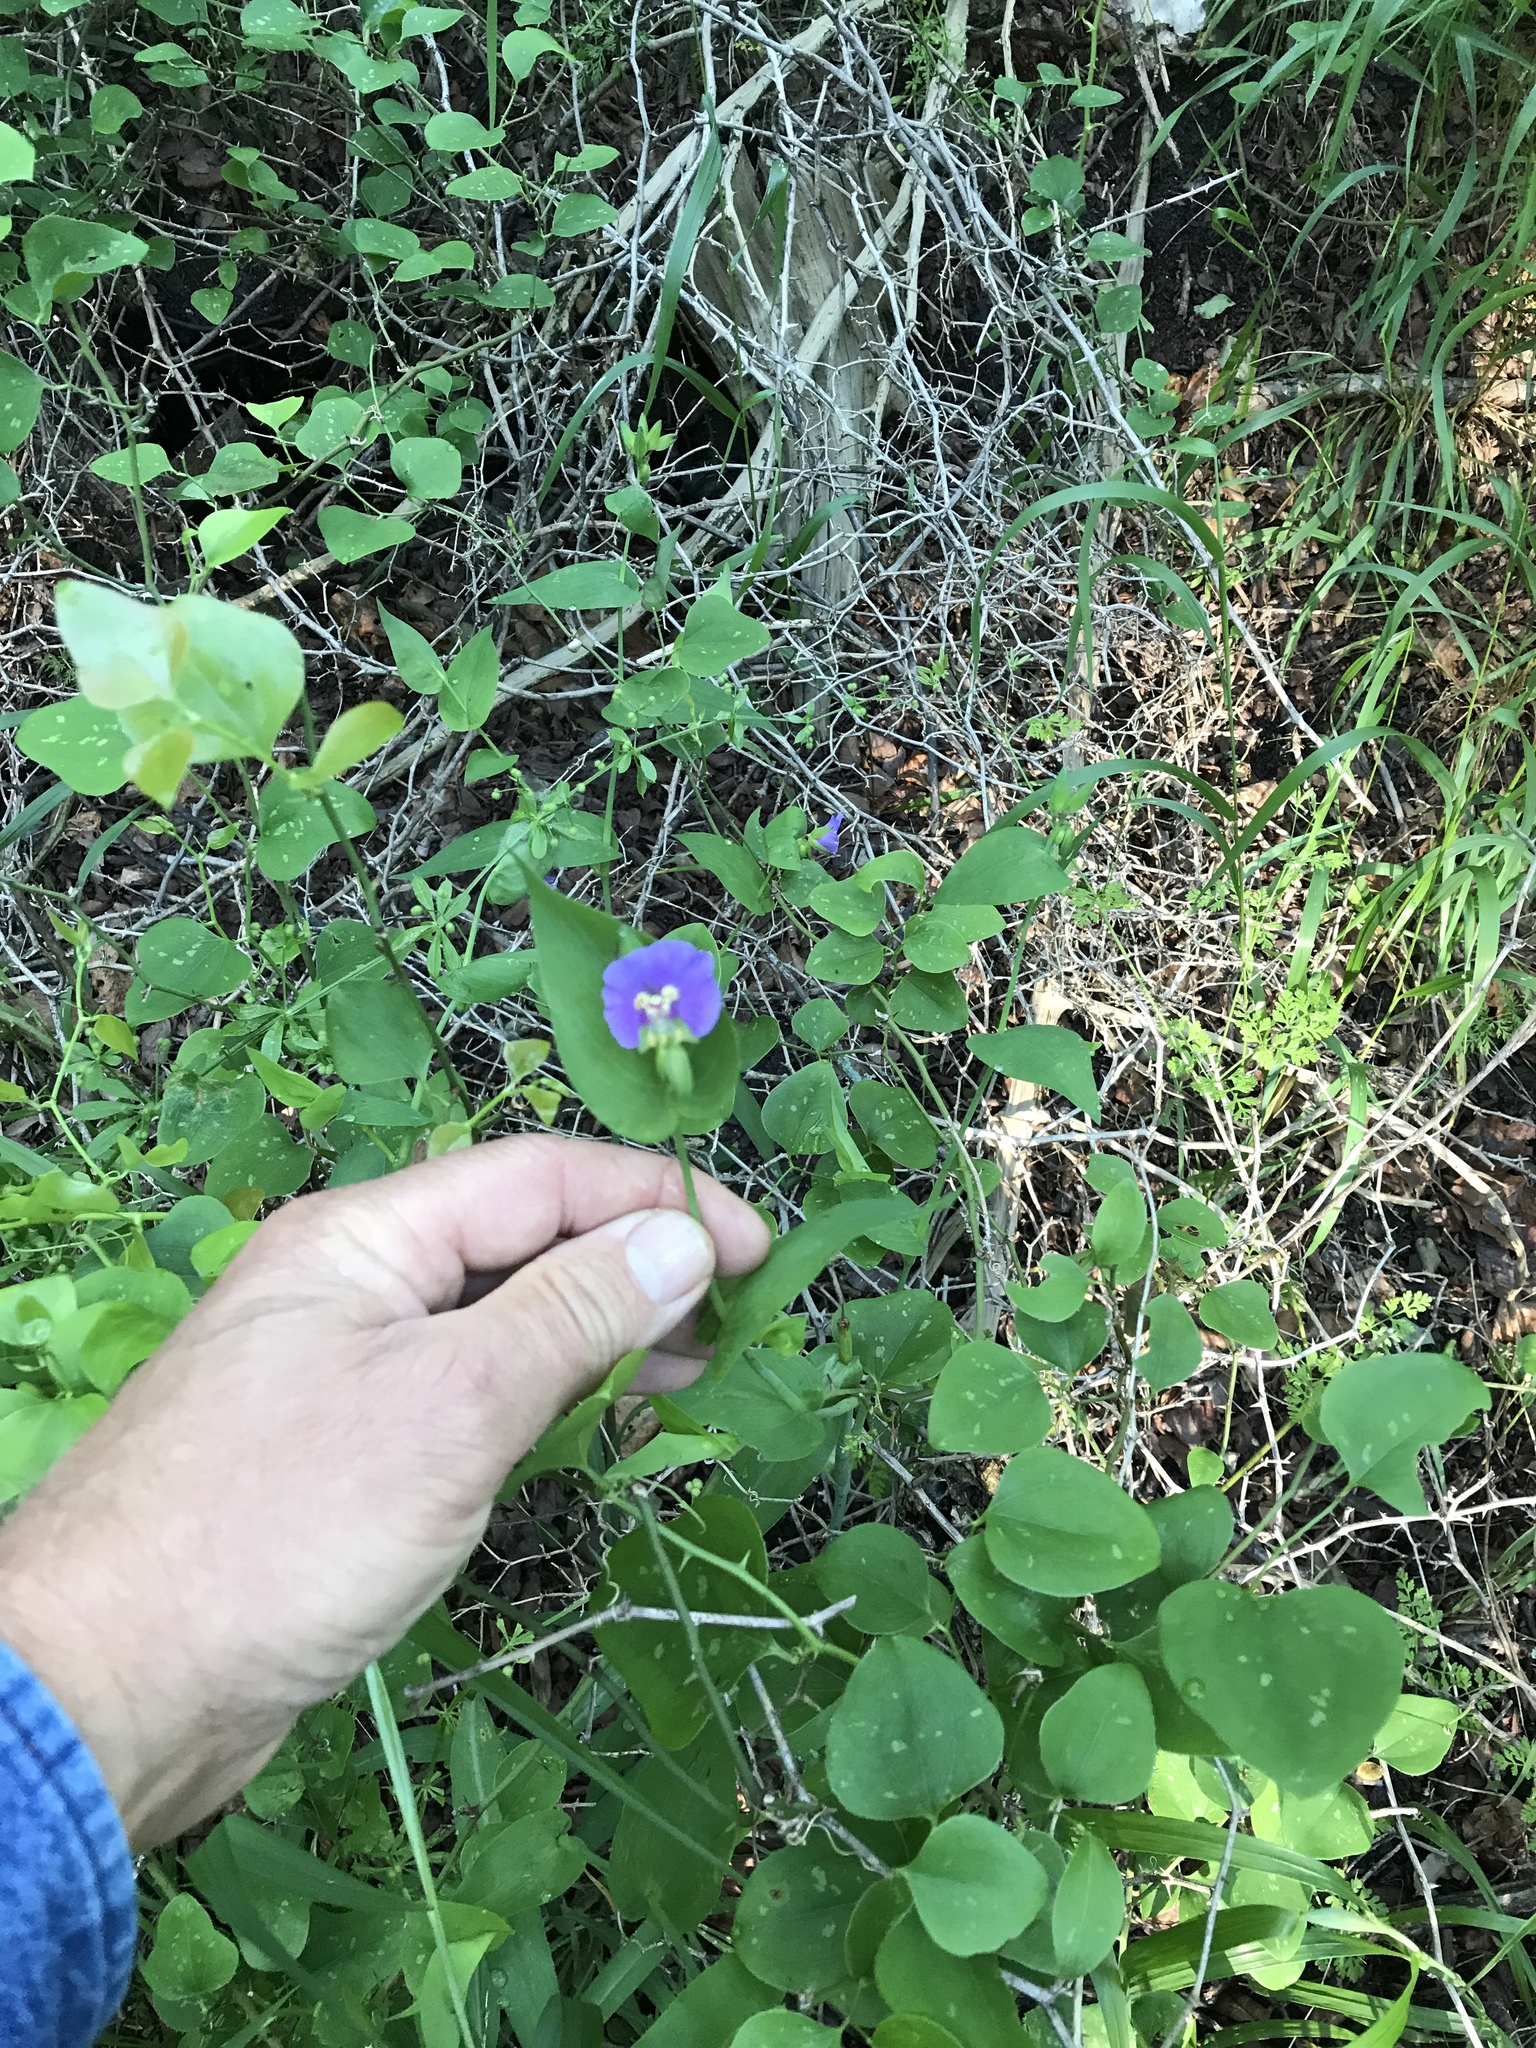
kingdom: Plantae
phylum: Tracheophyta
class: Liliopsida
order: Commelinales
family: Commelinaceae
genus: Tinantia
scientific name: Tinantia anomala
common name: False dayflower
